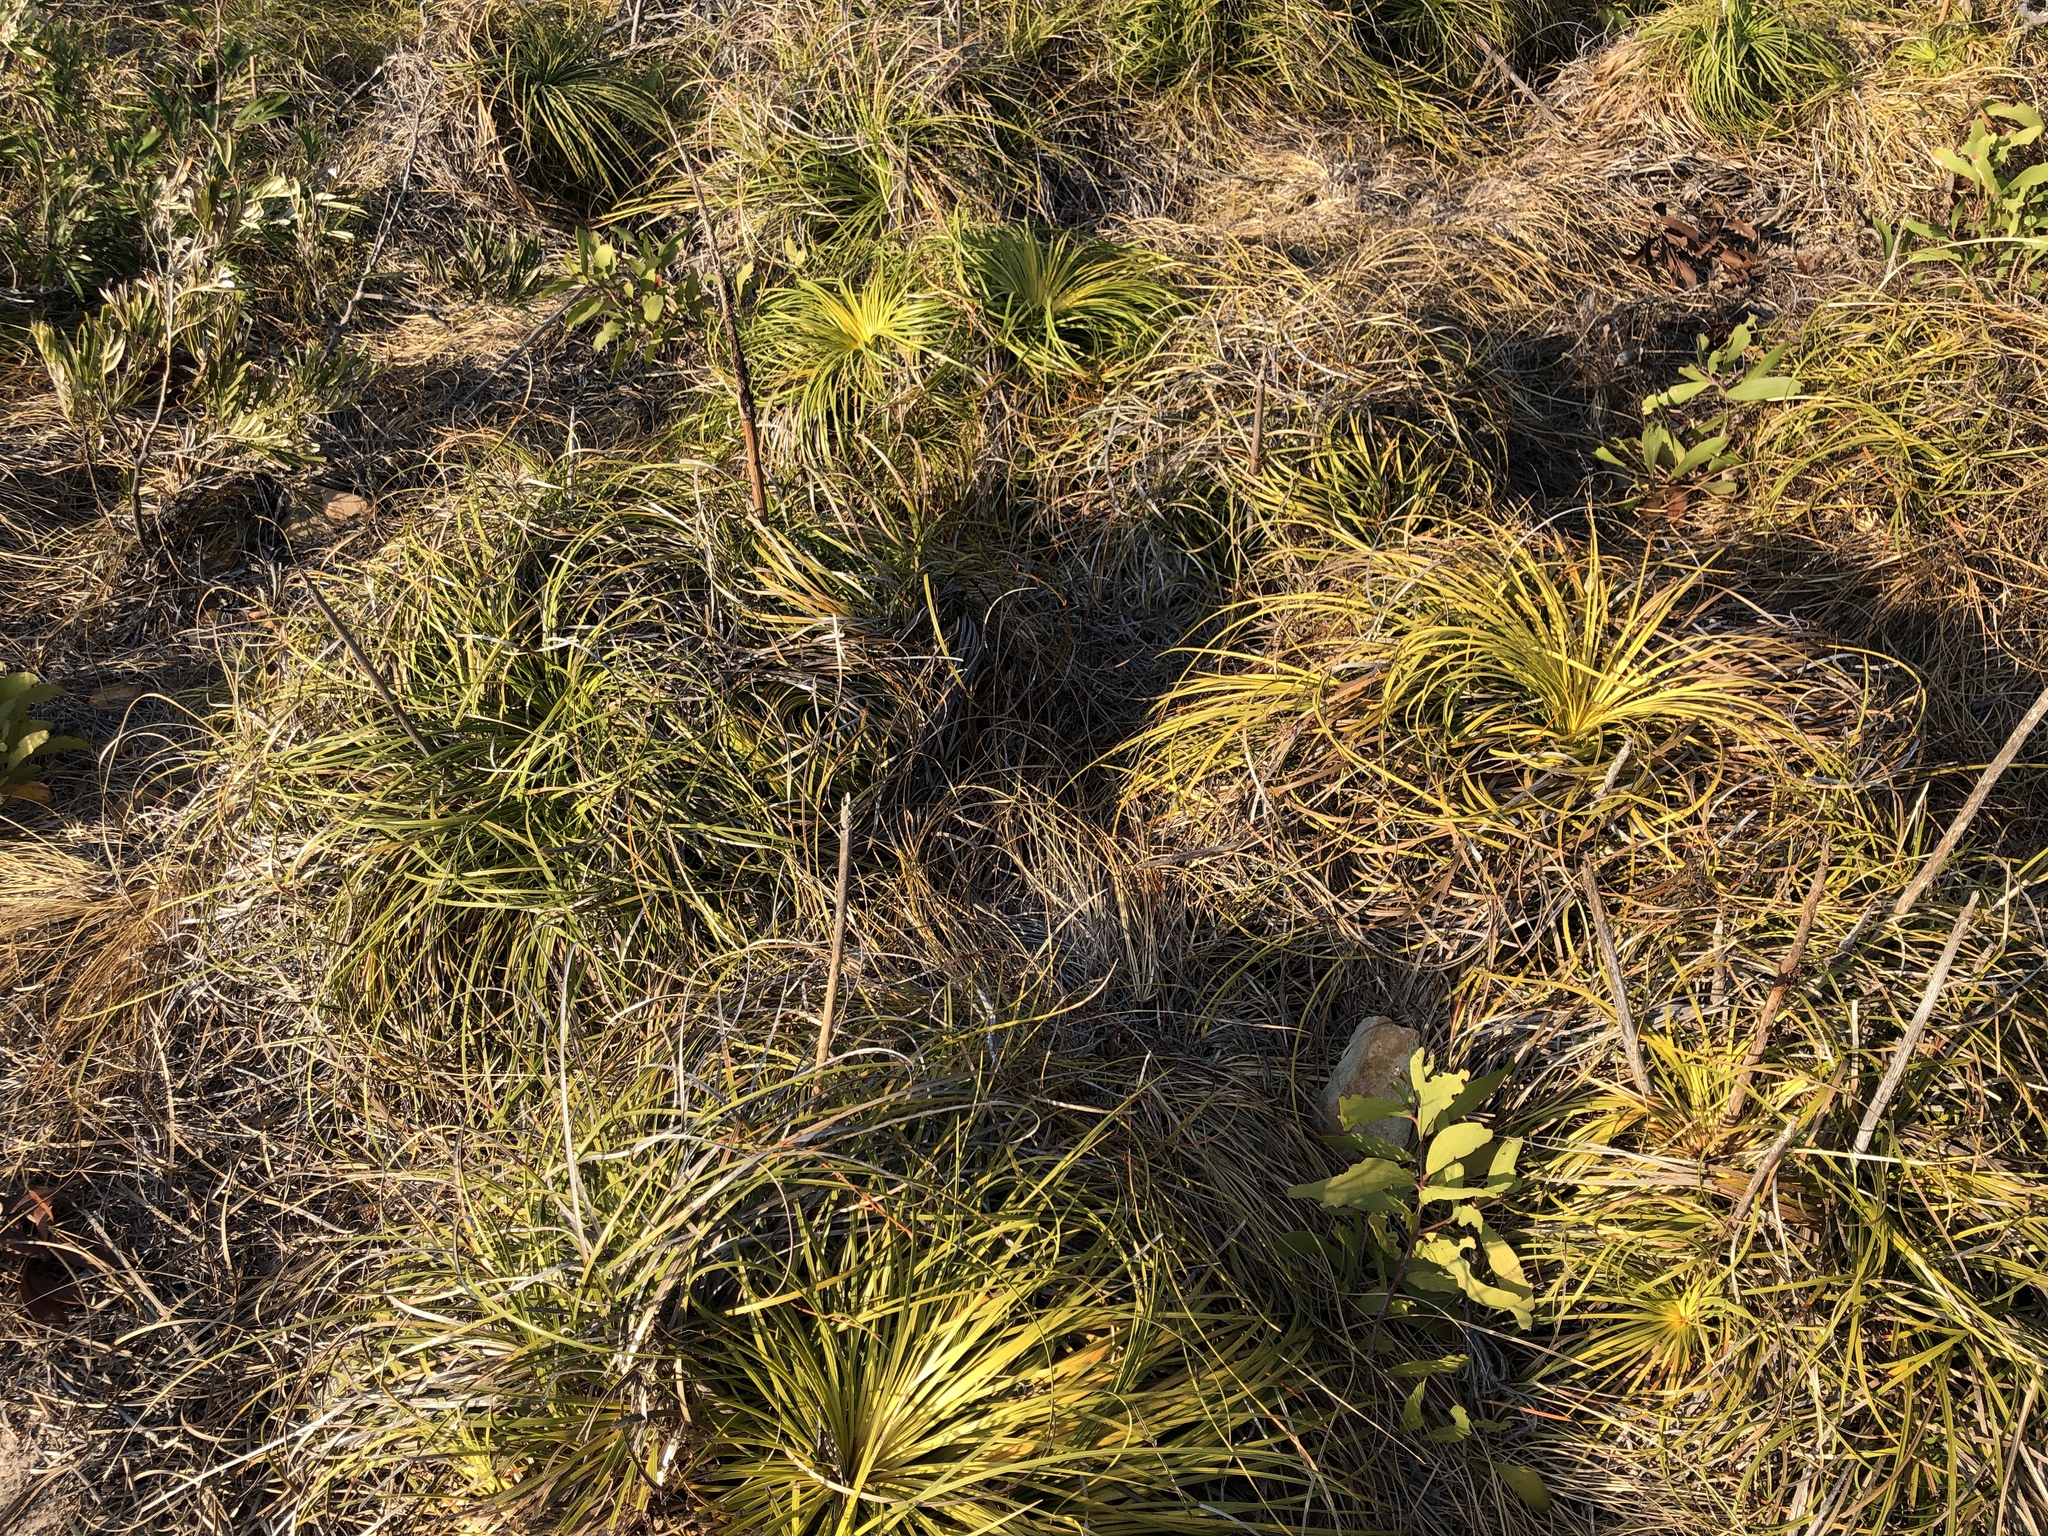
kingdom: Plantae
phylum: Tracheophyta
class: Liliopsida
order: Asparagales
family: Asphodelaceae
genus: Xanthorrhoea
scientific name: Xanthorrhoea pumilio
